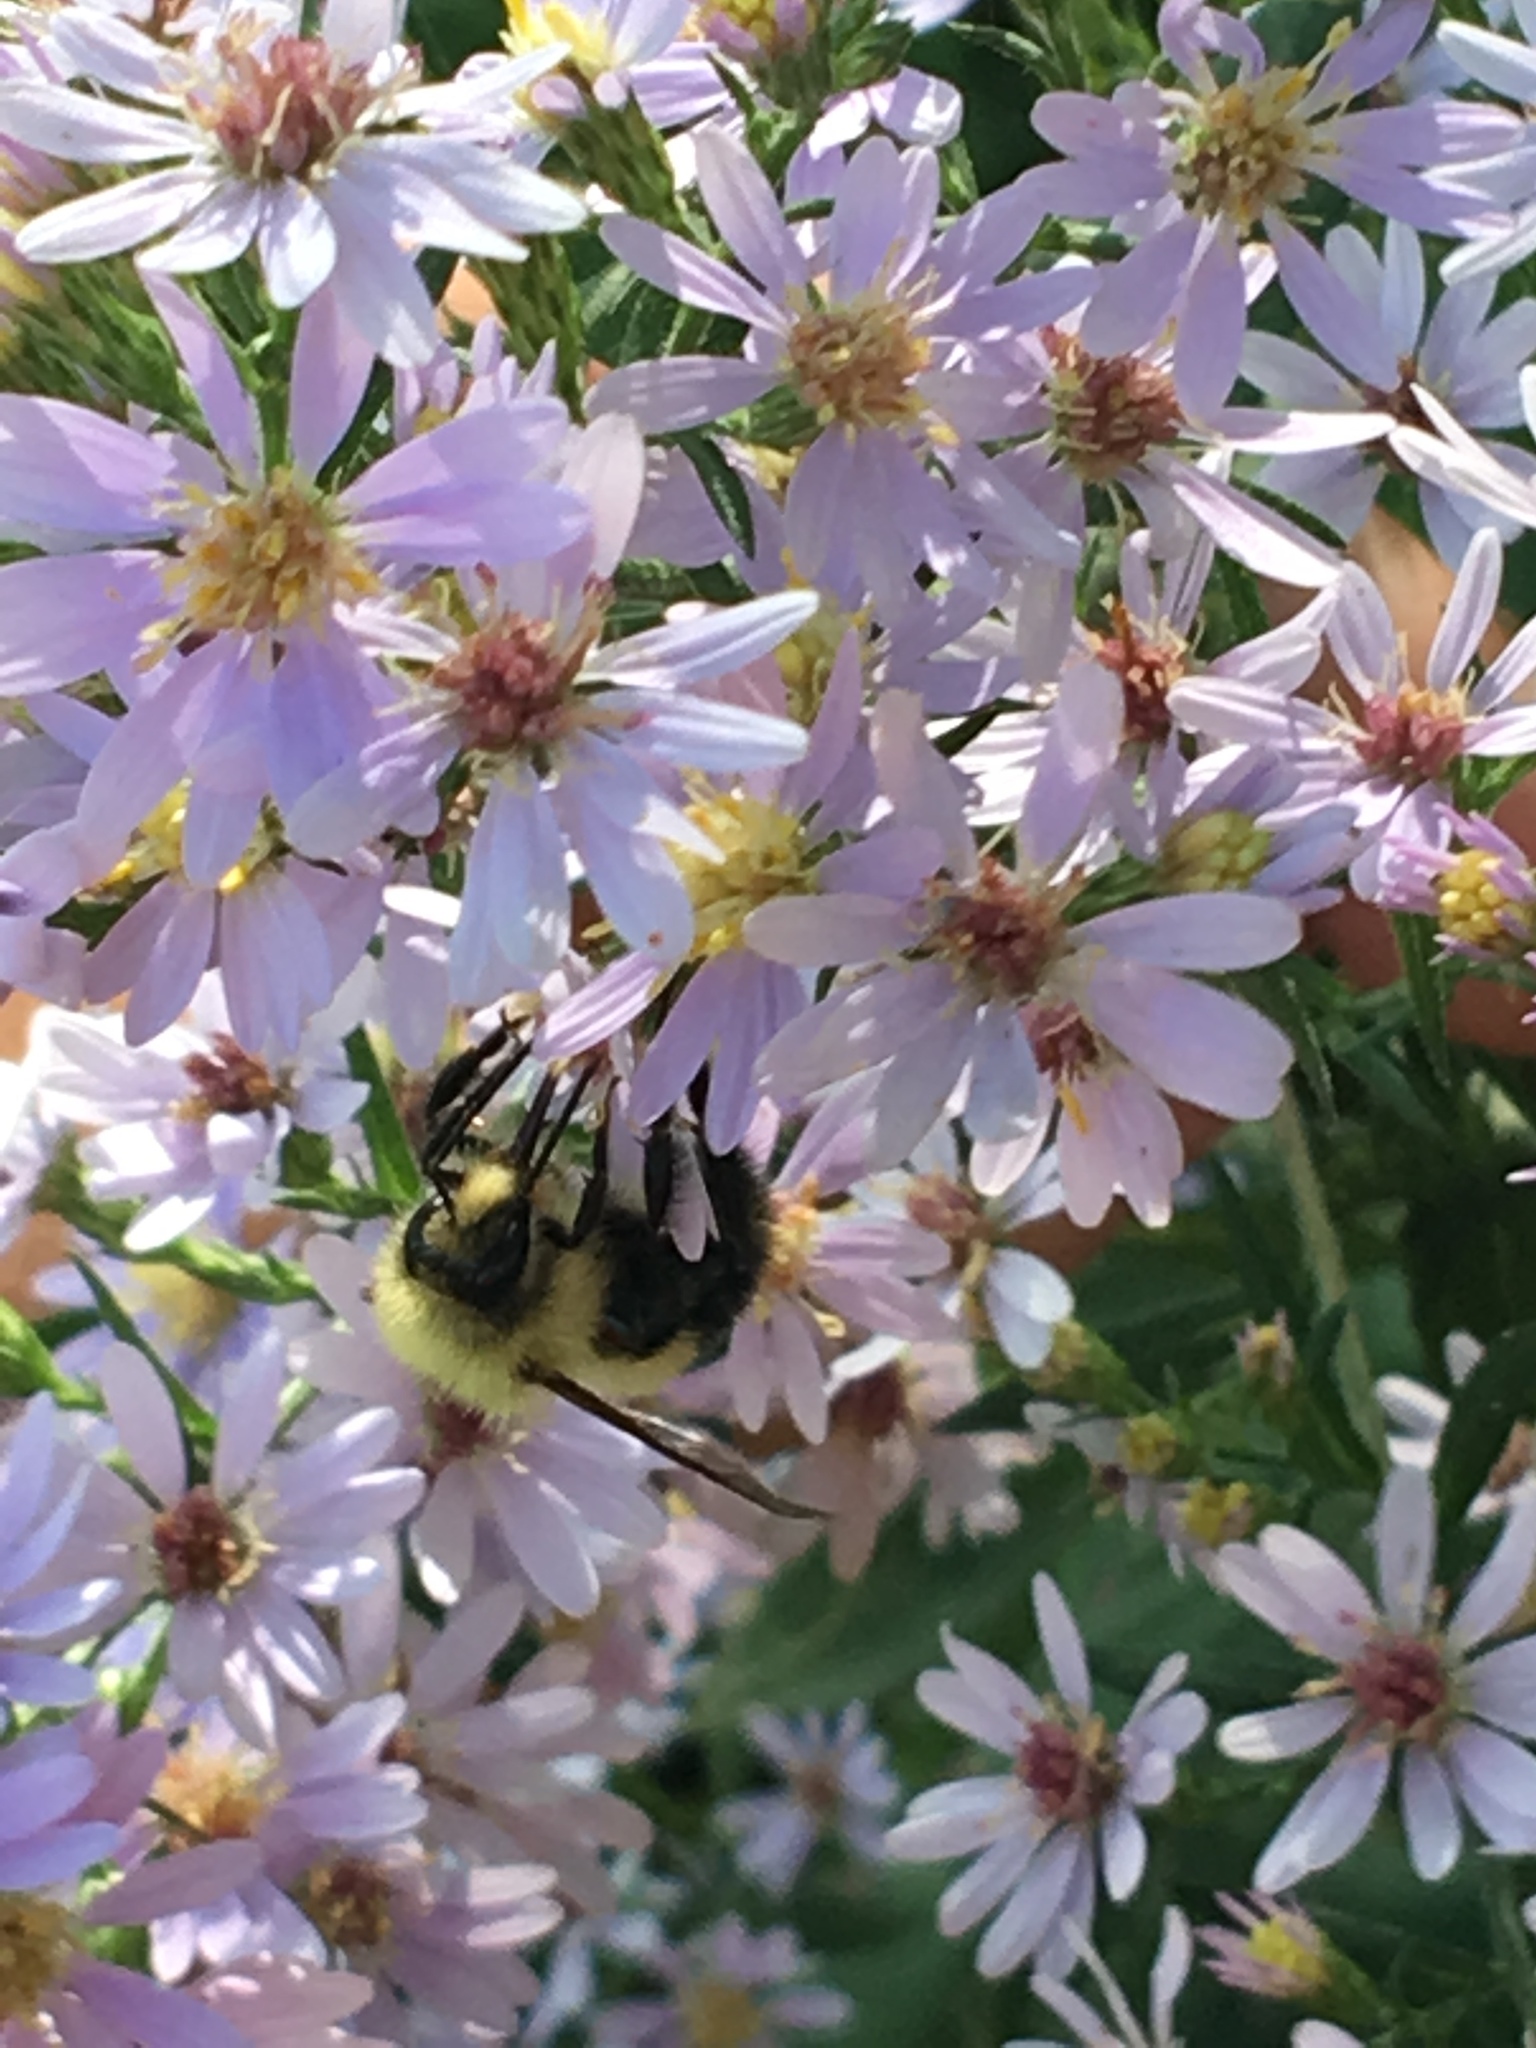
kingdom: Animalia
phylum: Arthropoda
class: Insecta
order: Hymenoptera
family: Apidae
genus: Bombus
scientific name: Bombus vagans
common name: Half-black bumble bee
